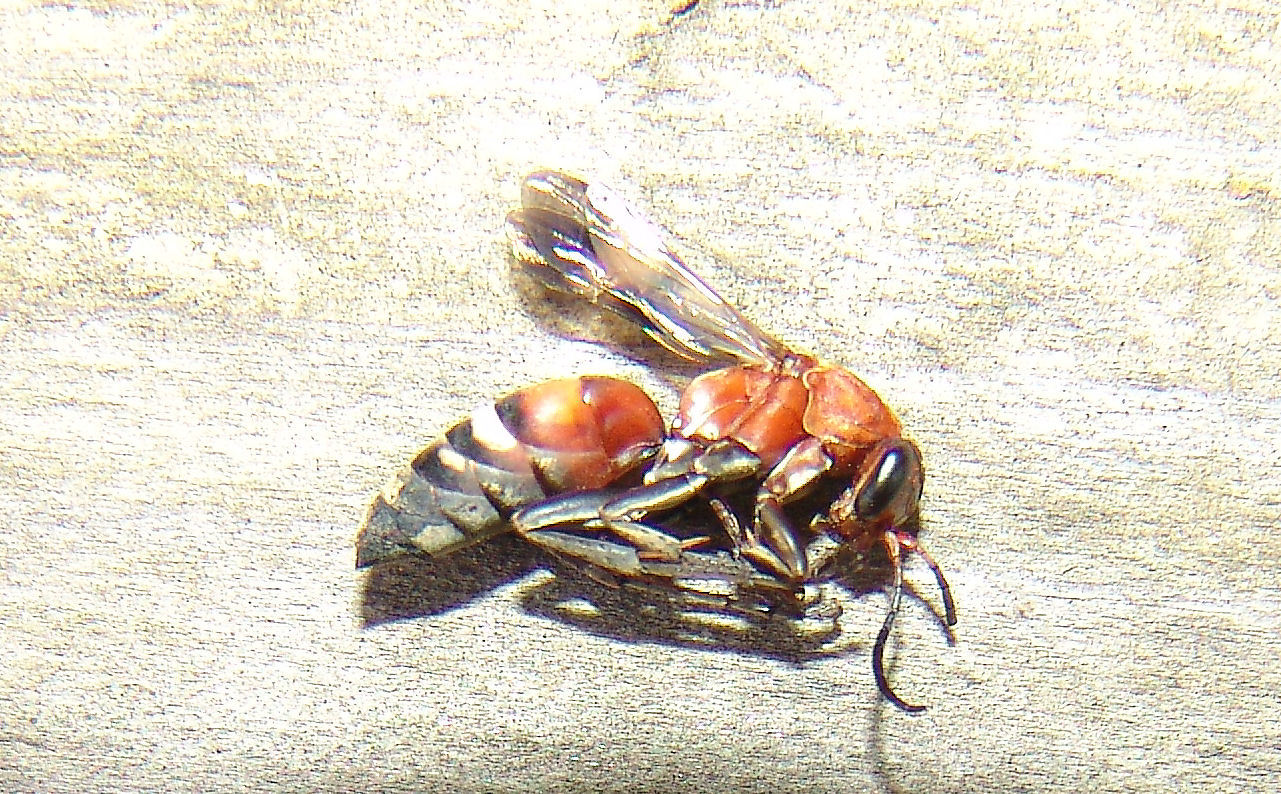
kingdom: Animalia
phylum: Arthropoda
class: Insecta
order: Hymenoptera
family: Pompilidae
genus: Psorthaspis
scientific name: Psorthaspis legata
